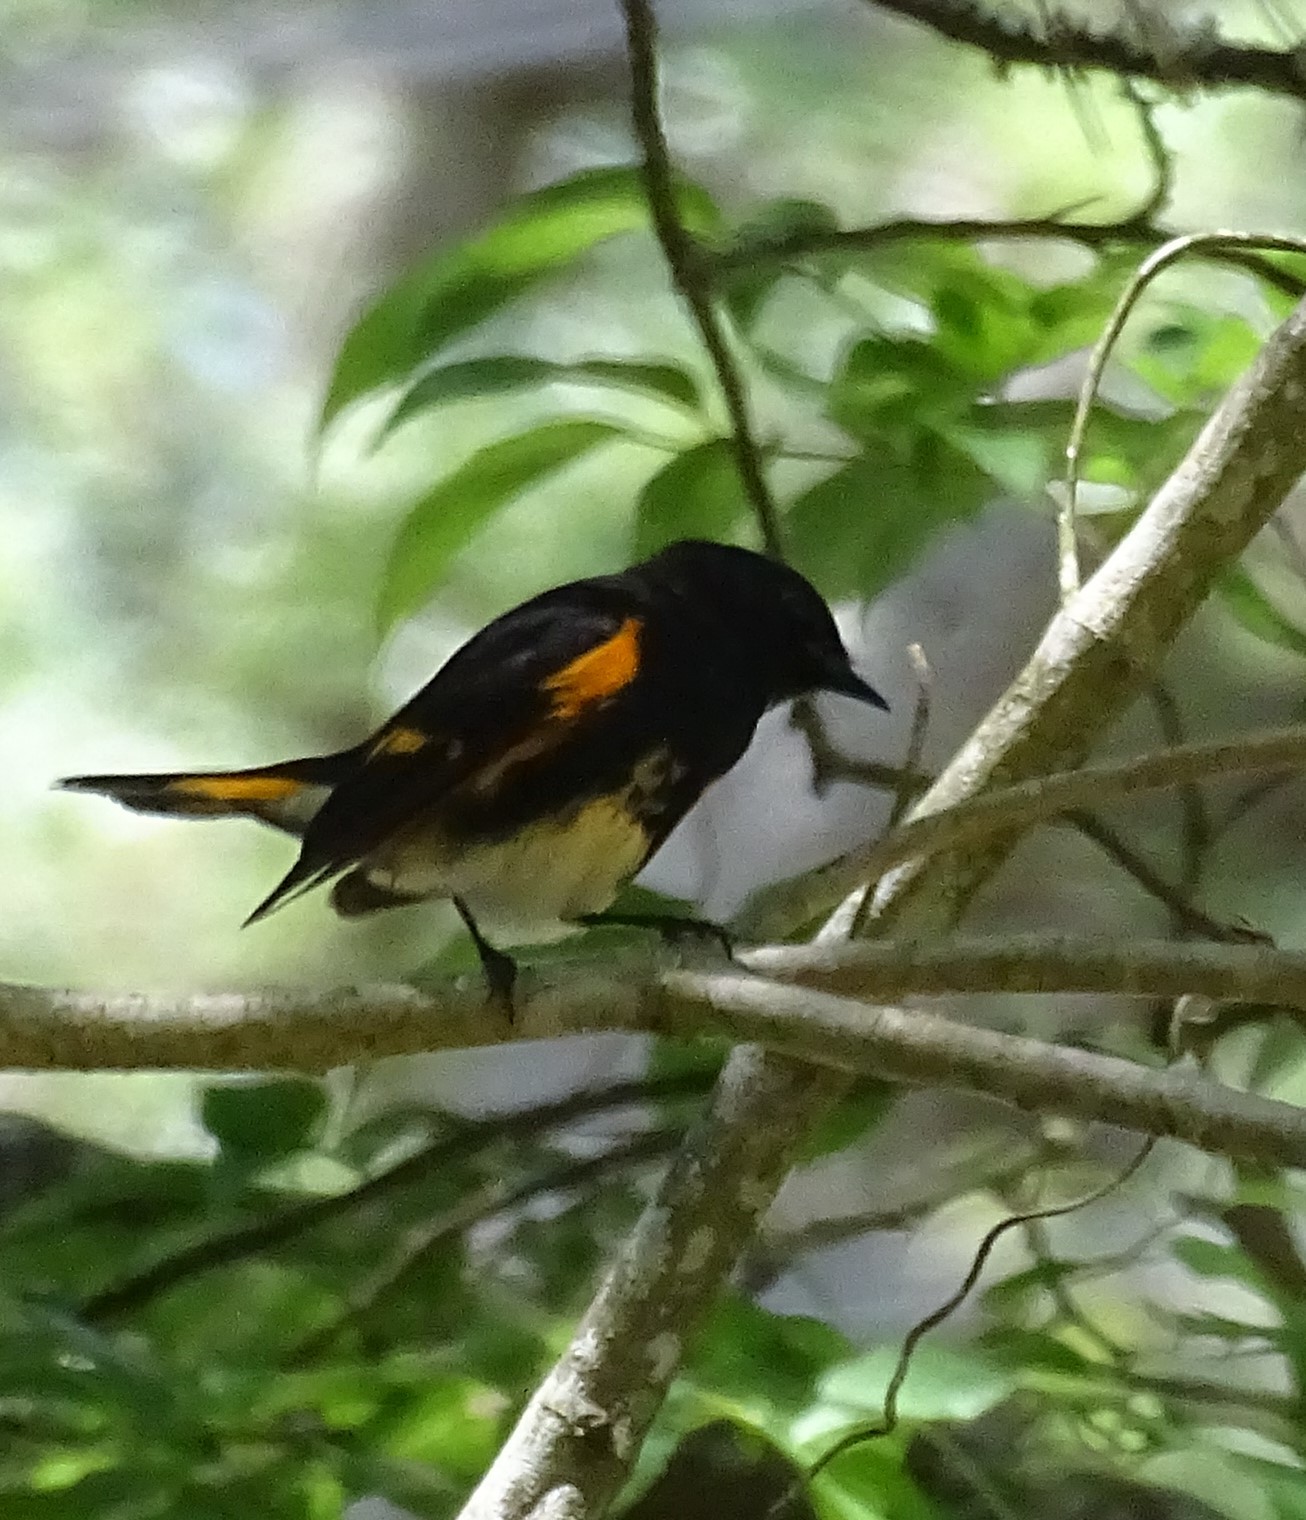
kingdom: Animalia
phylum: Chordata
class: Aves
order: Passeriformes
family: Parulidae
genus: Setophaga
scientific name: Setophaga ruticilla
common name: American redstart
